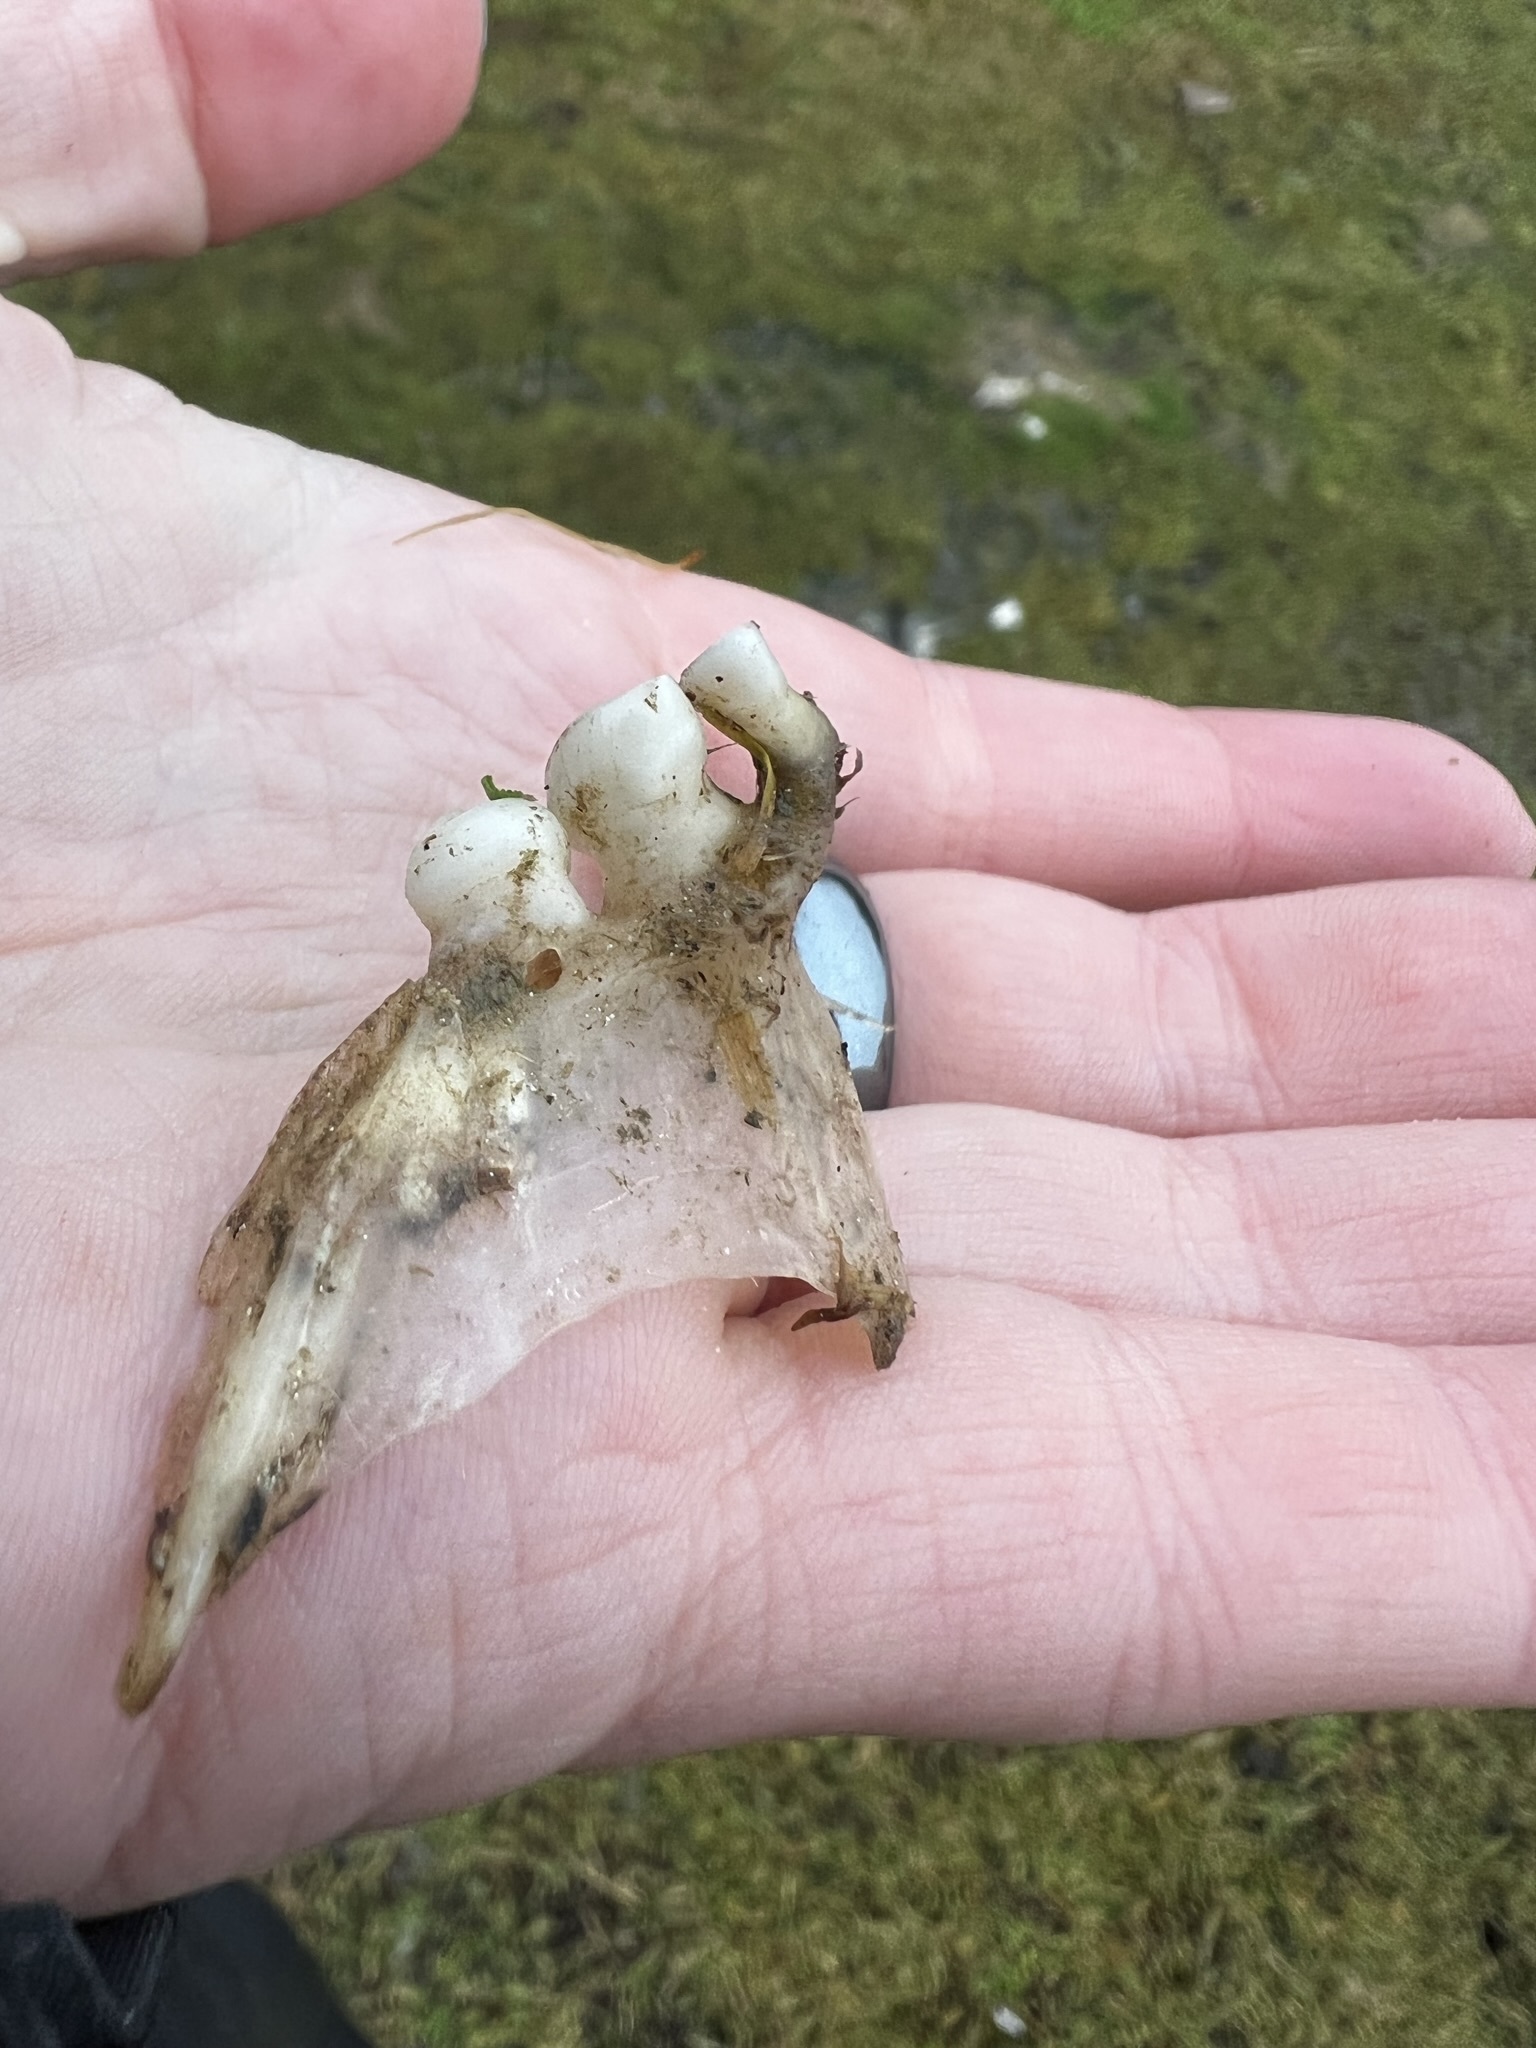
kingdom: Animalia
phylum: Chordata
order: Cypriniformes
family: Cyprinidae
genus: Cyprinus
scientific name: Cyprinus carpio
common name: Common carp
